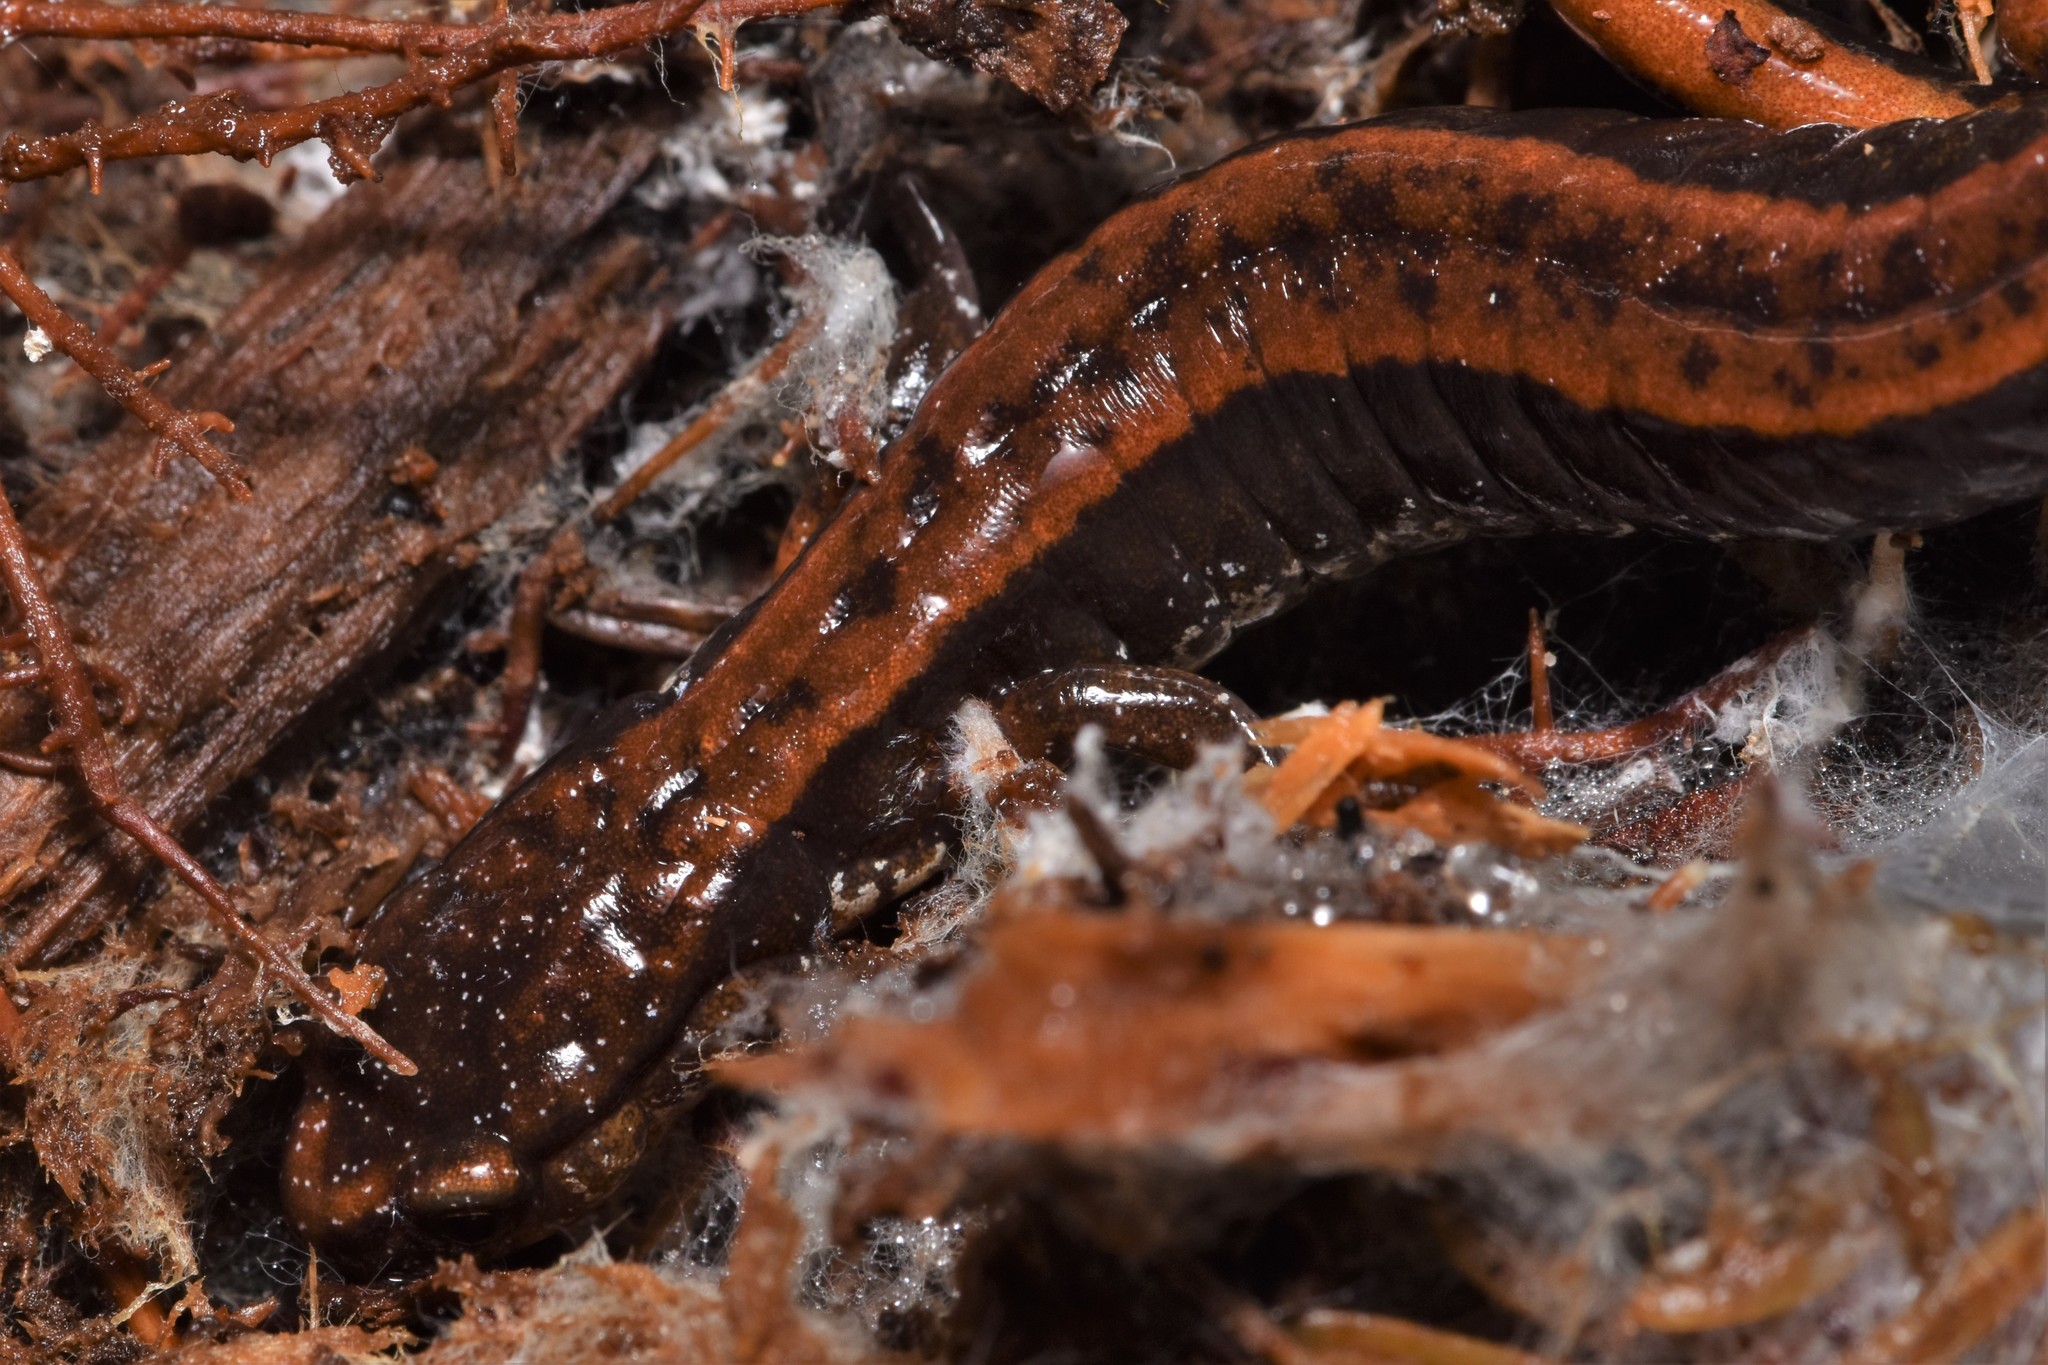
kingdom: Animalia
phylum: Chordata
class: Amphibia
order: Caudata
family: Plethodontidae
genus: Plethodon
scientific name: Plethodon vehiculum
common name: Western red-backed salamander
